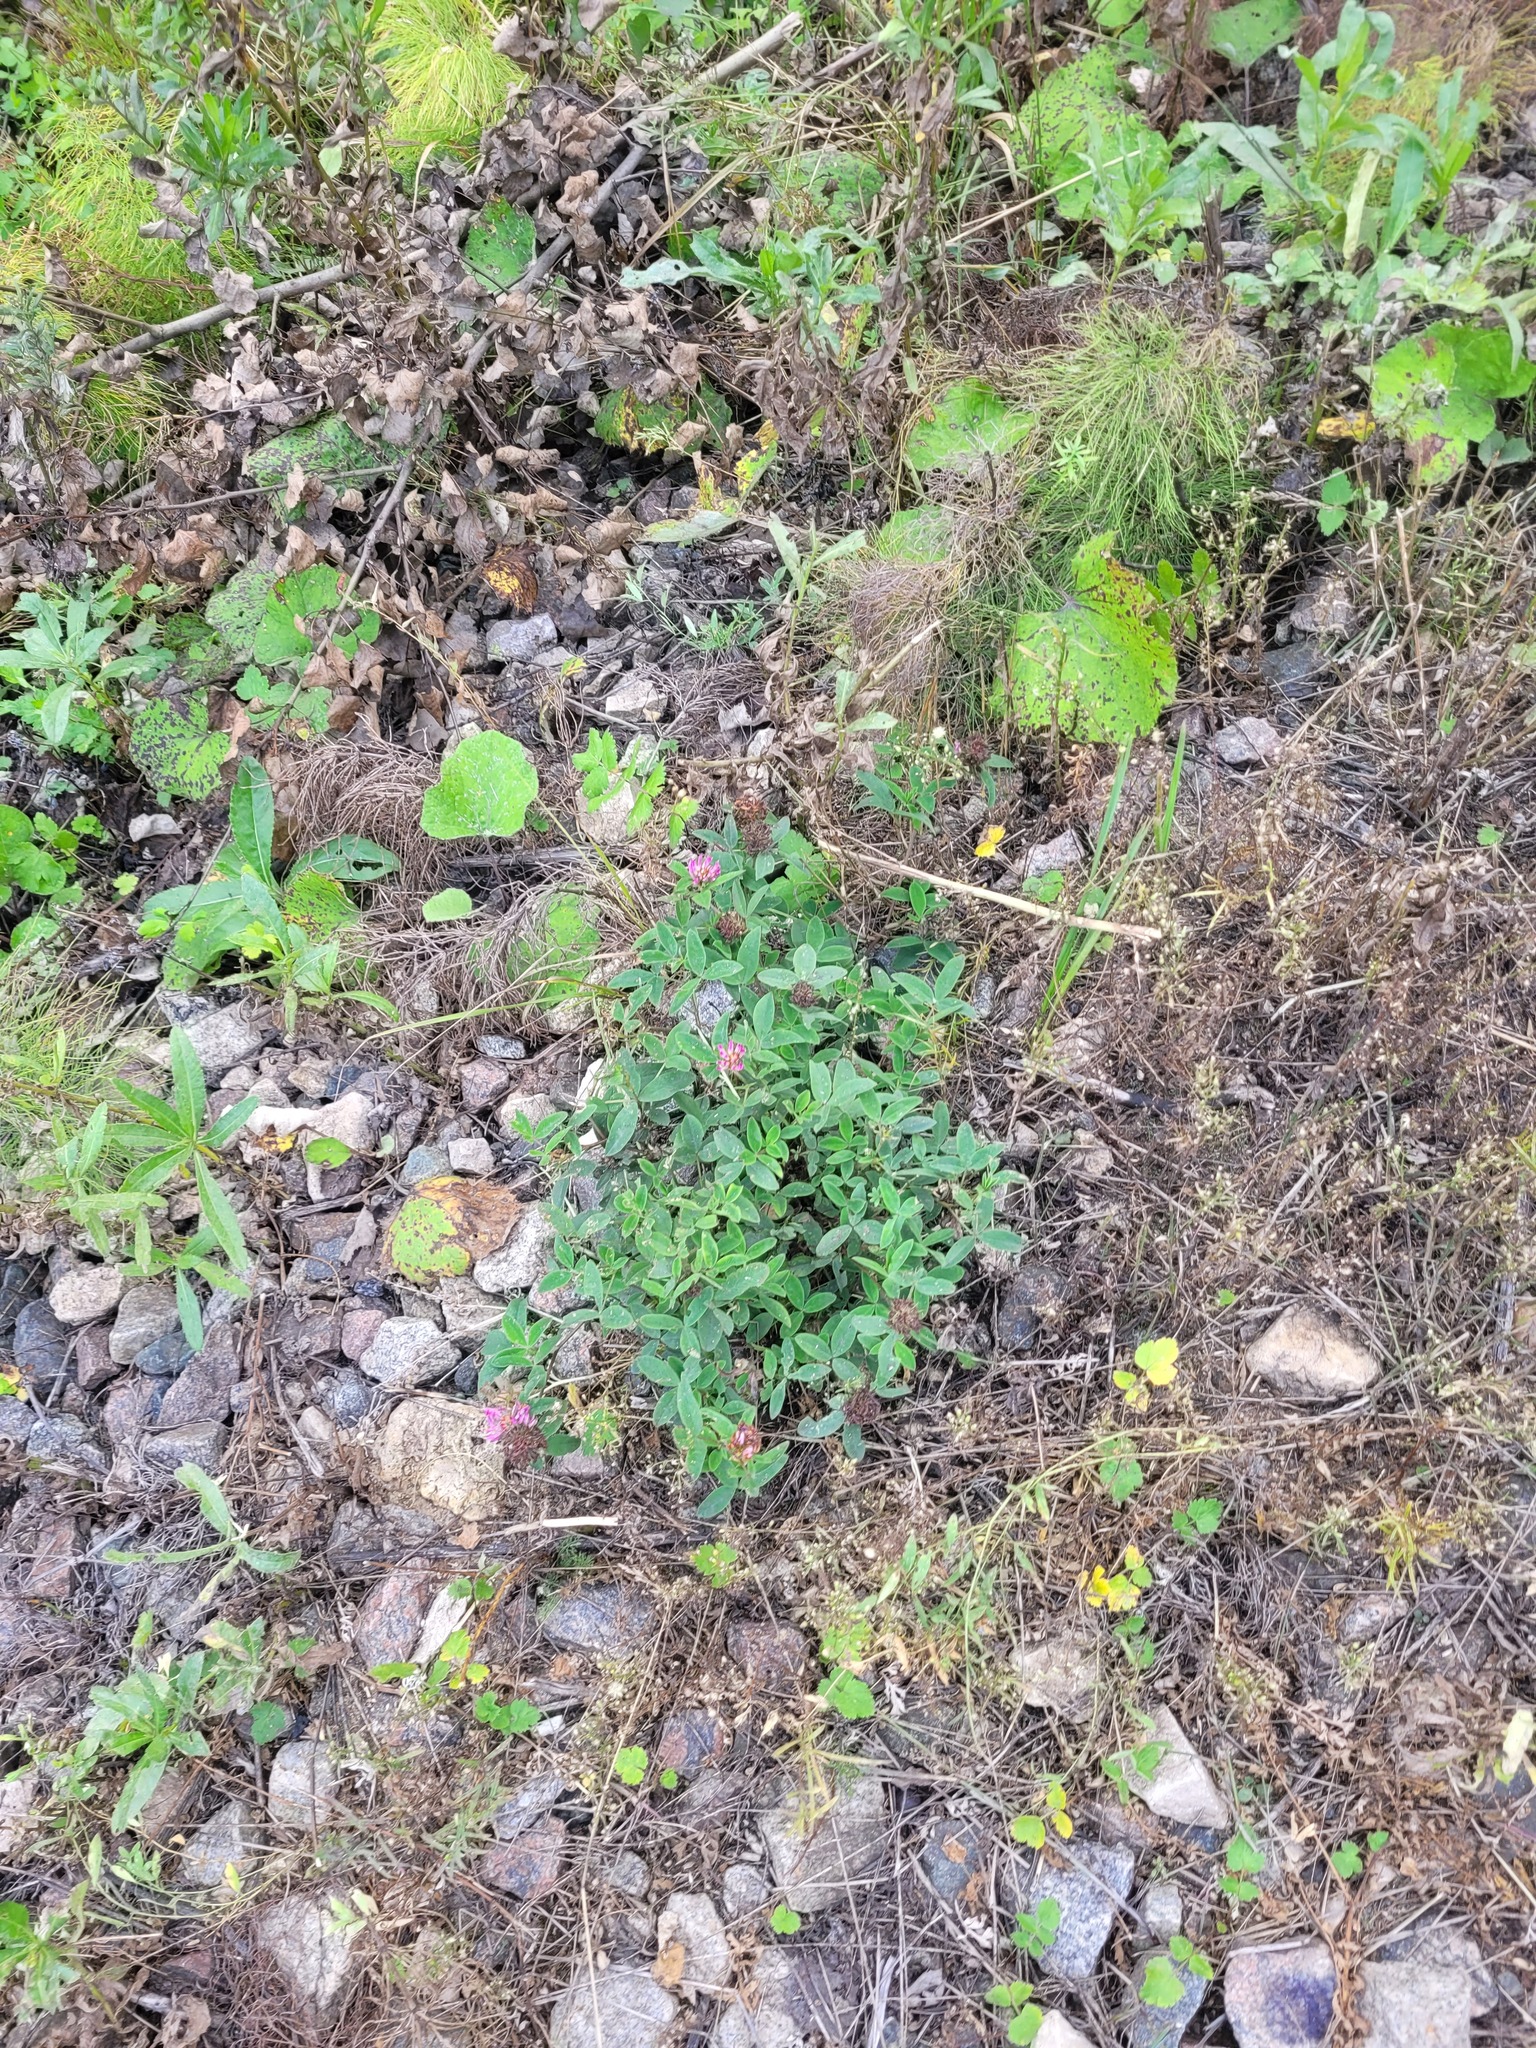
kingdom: Plantae
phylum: Tracheophyta
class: Magnoliopsida
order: Fabales
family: Fabaceae
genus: Trifolium
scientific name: Trifolium medium
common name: Zigzag clover
